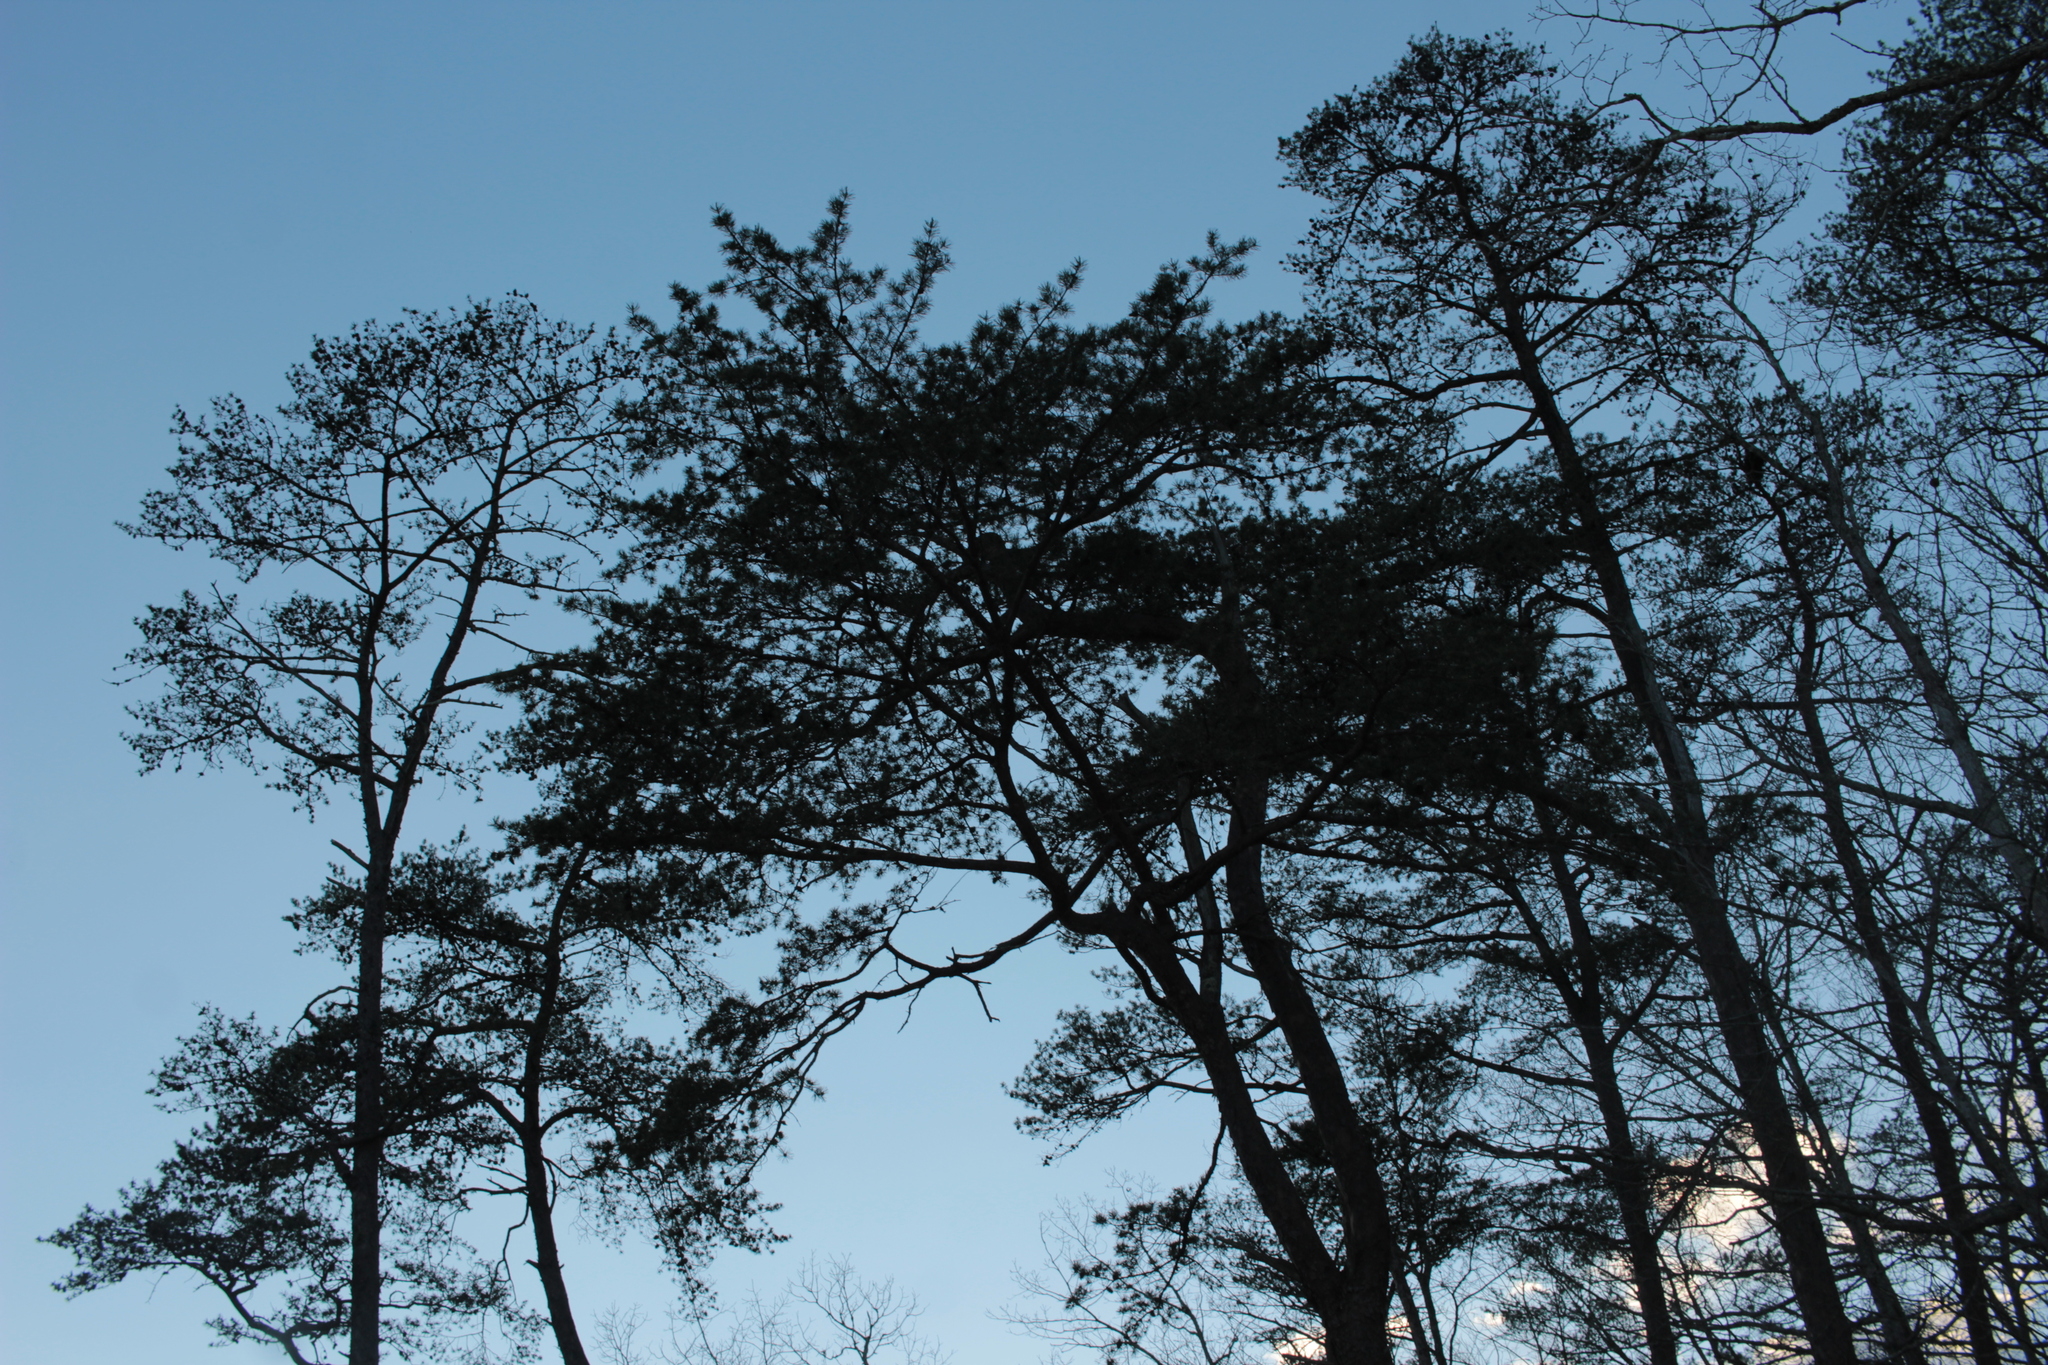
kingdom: Plantae
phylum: Tracheophyta
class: Pinopsida
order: Pinales
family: Pinaceae
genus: Pinus
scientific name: Pinus virginiana
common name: Scrub pine
